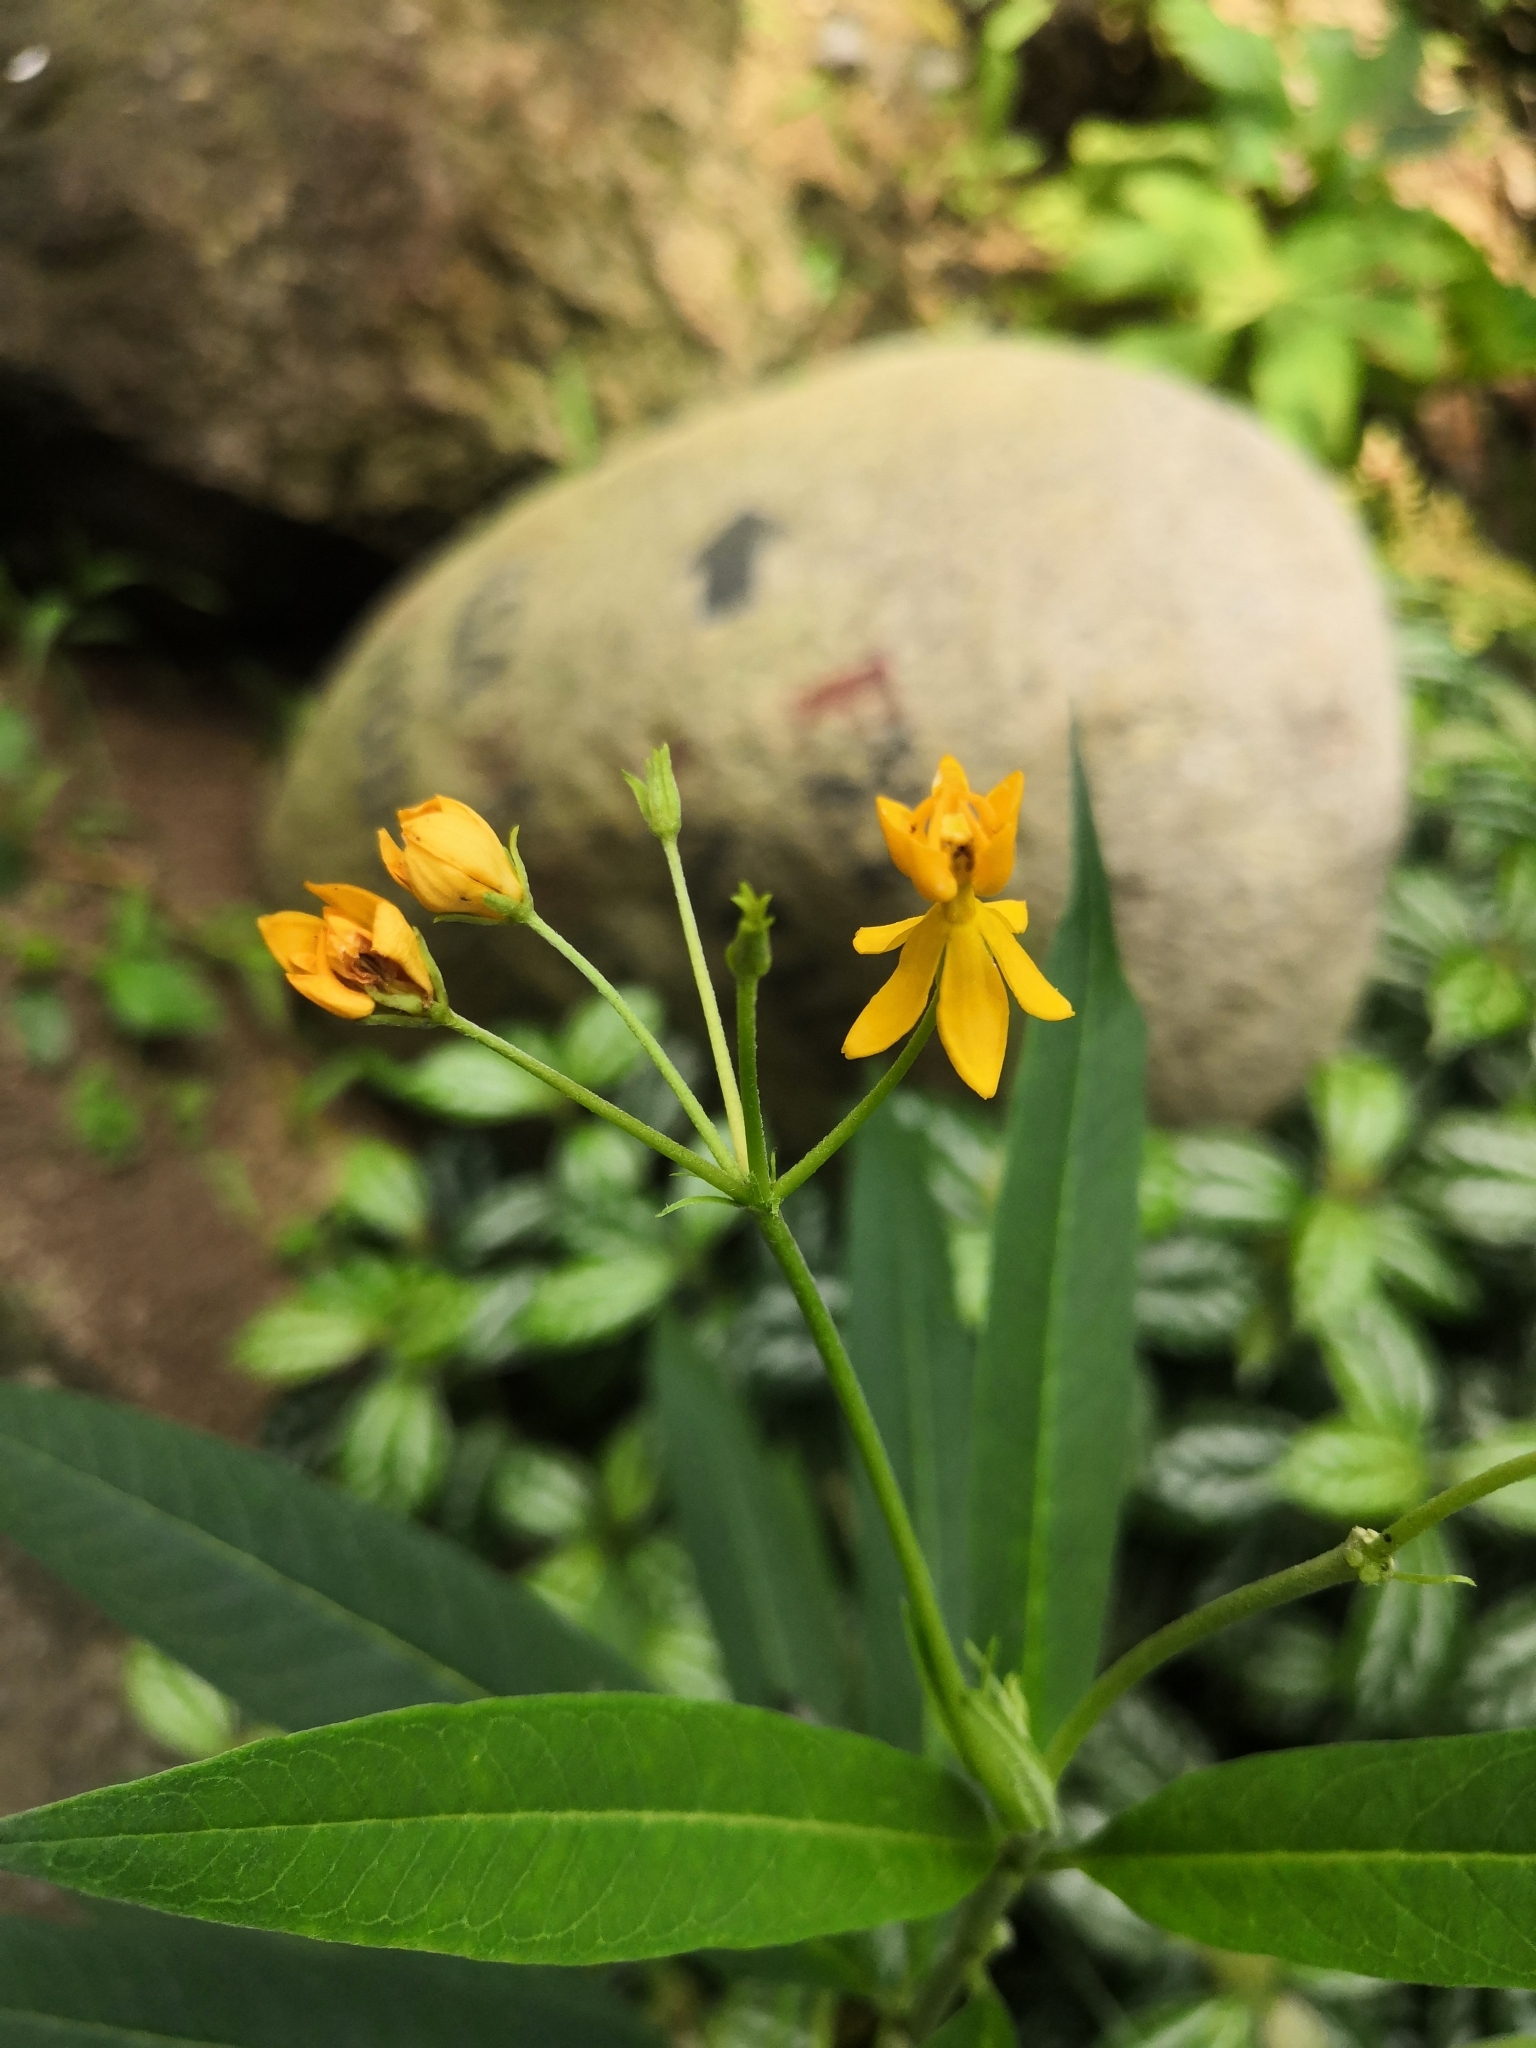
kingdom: Plantae
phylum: Tracheophyta
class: Magnoliopsida
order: Gentianales
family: Apocynaceae
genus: Asclepias
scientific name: Asclepias curassavica
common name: Bloodflower
